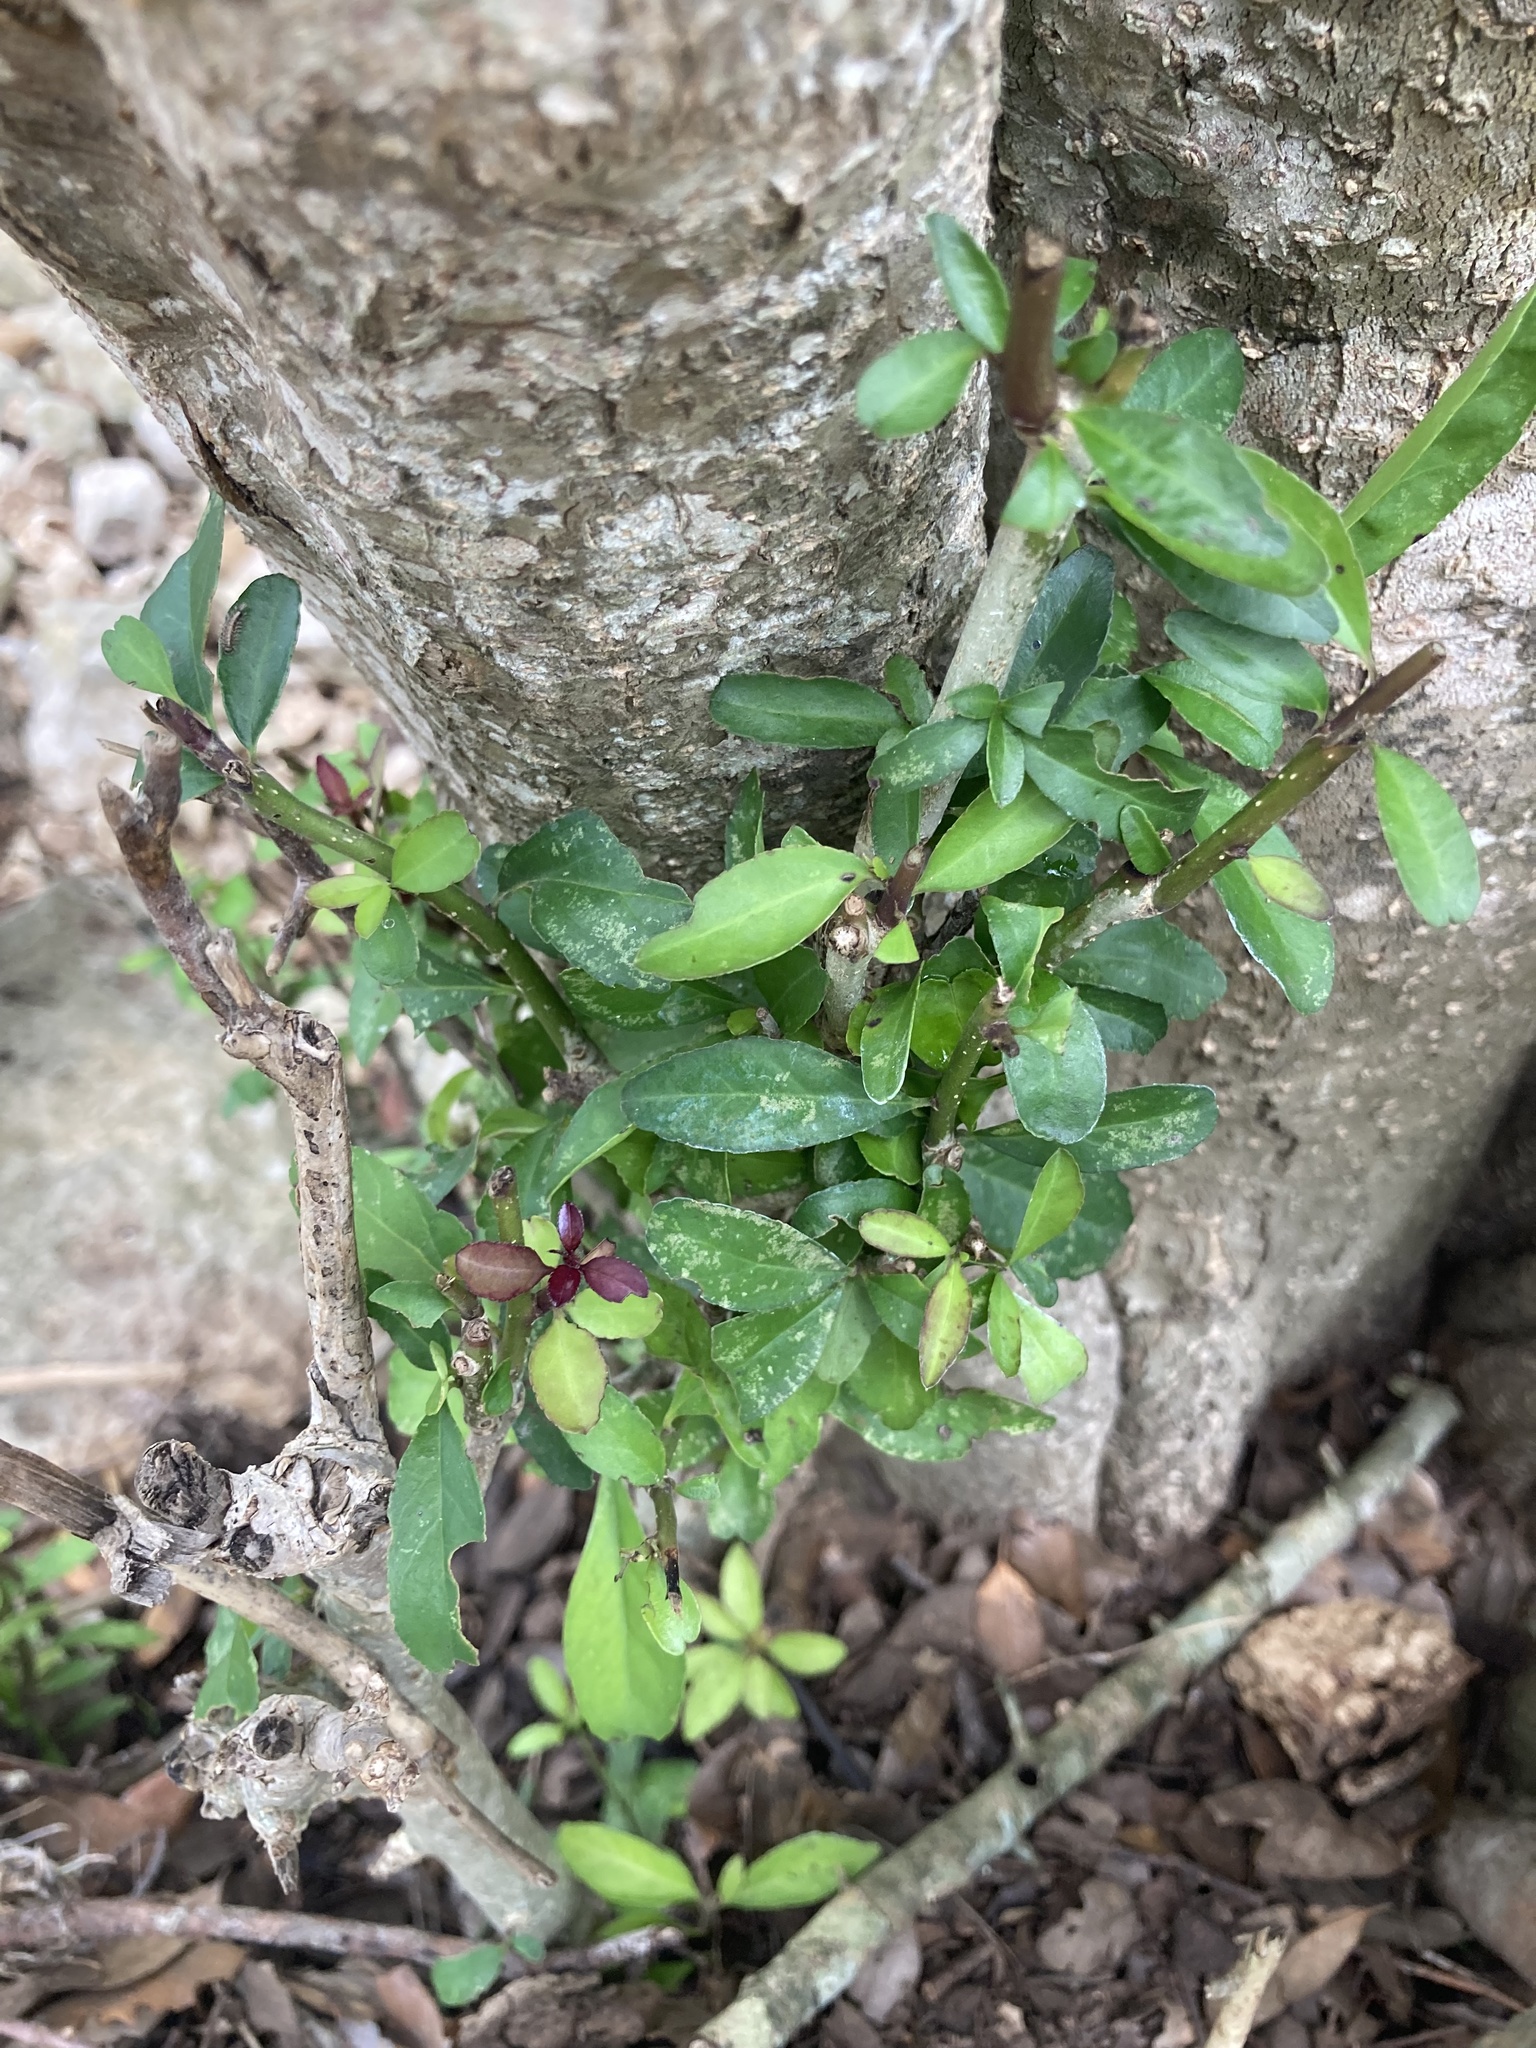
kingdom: Plantae
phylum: Tracheophyta
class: Magnoliopsida
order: Aquifoliales
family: Aquifoliaceae
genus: Ilex
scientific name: Ilex decidua
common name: Possum-haw
